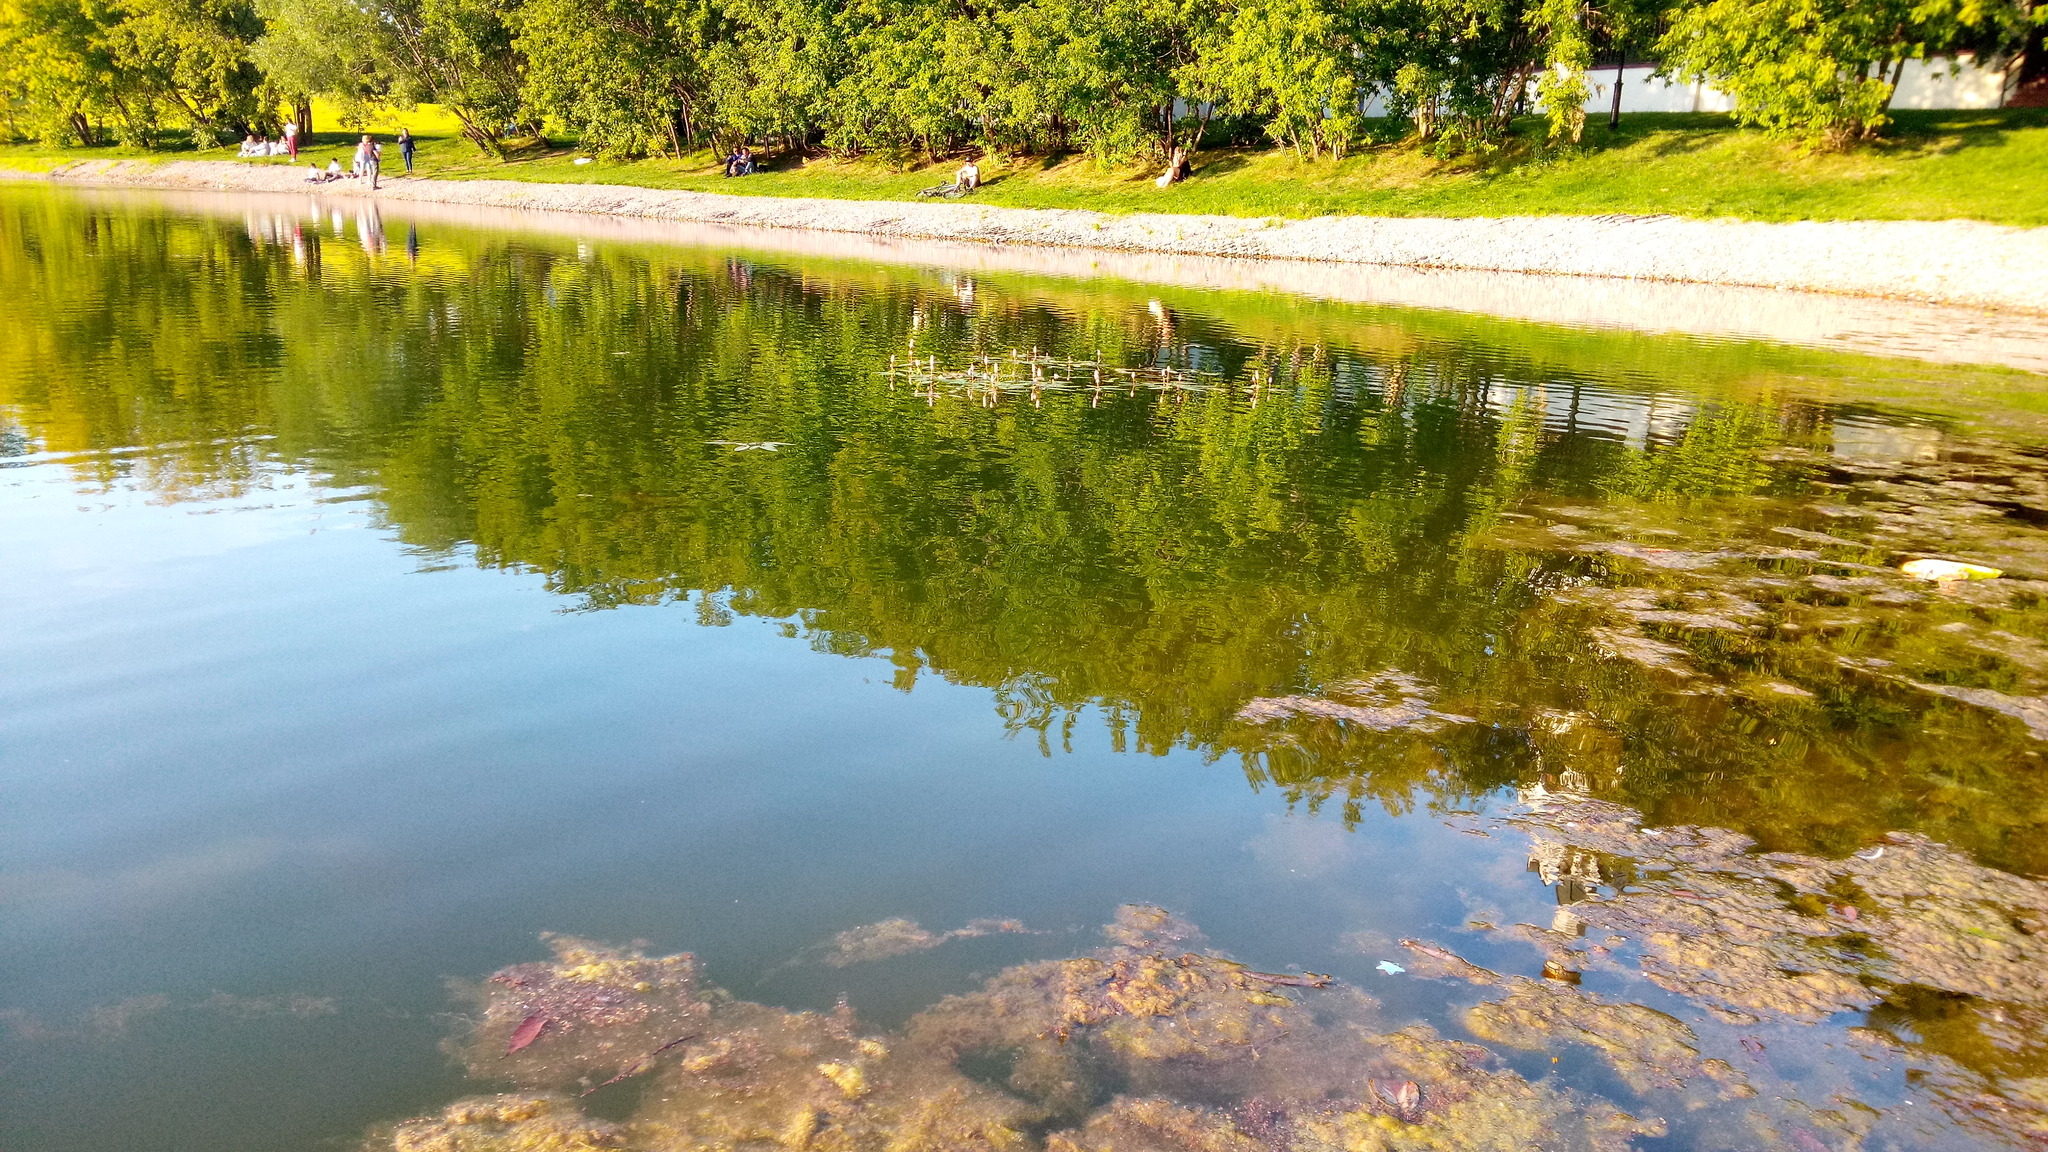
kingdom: Plantae
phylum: Tracheophyta
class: Magnoliopsida
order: Caryophyllales
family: Polygonaceae
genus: Persicaria
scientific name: Persicaria amphibia
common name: Amphibious bistort
